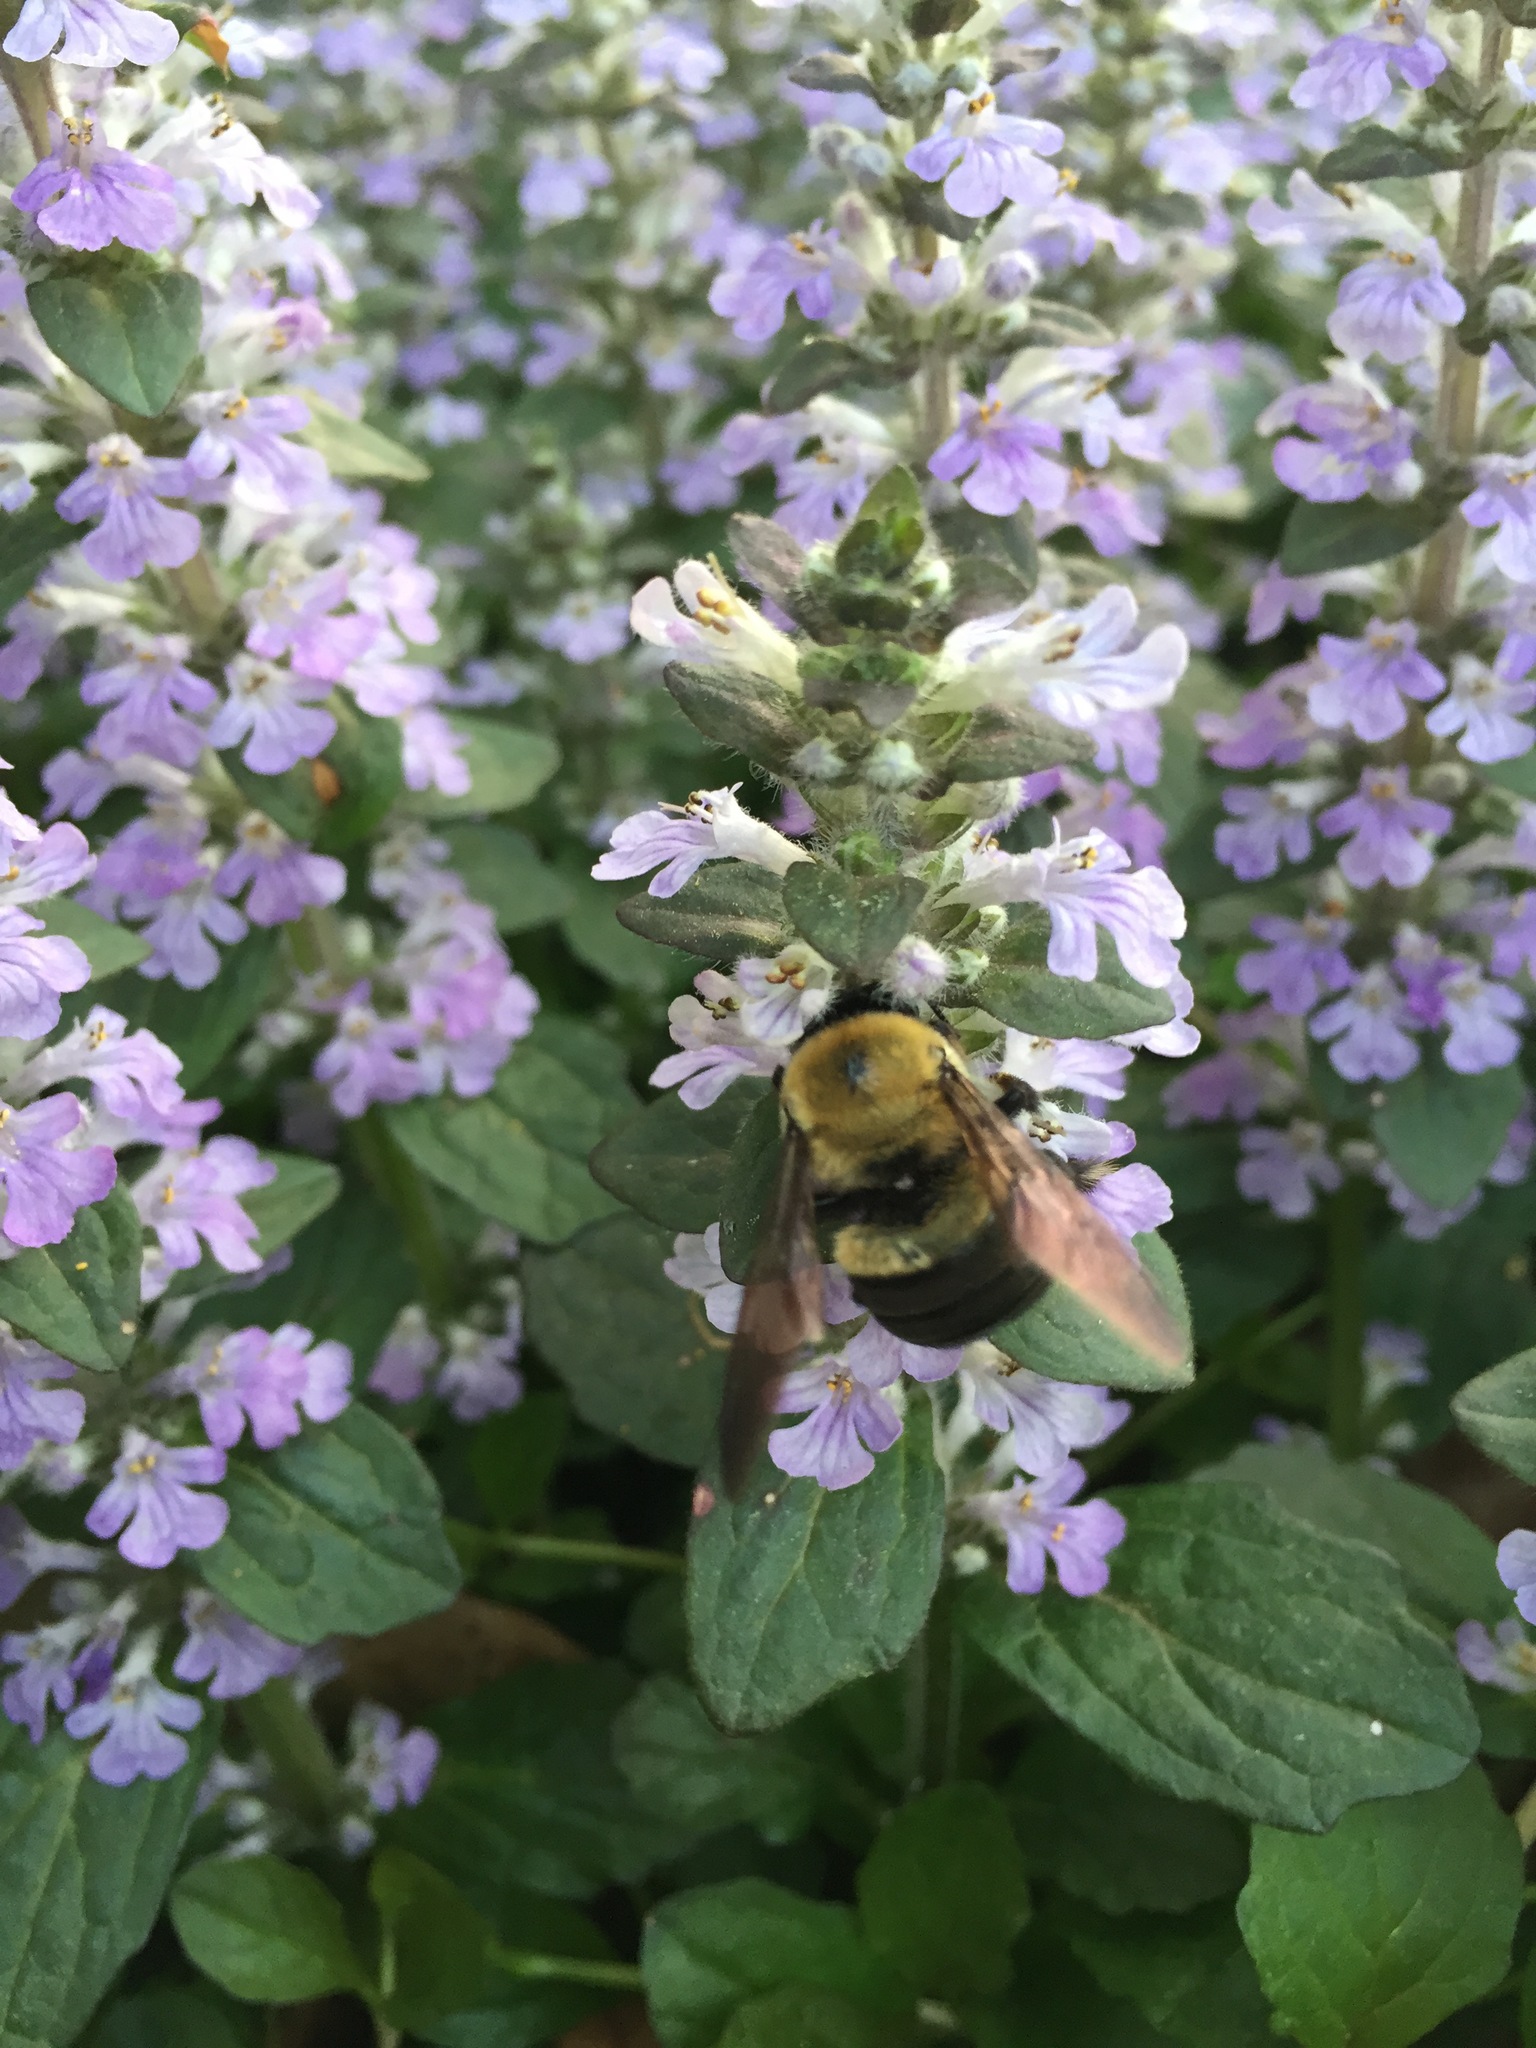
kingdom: Animalia
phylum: Arthropoda
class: Insecta
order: Hymenoptera
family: Apidae
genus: Xylocopa
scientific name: Xylocopa virginica
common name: Carpenter bee
